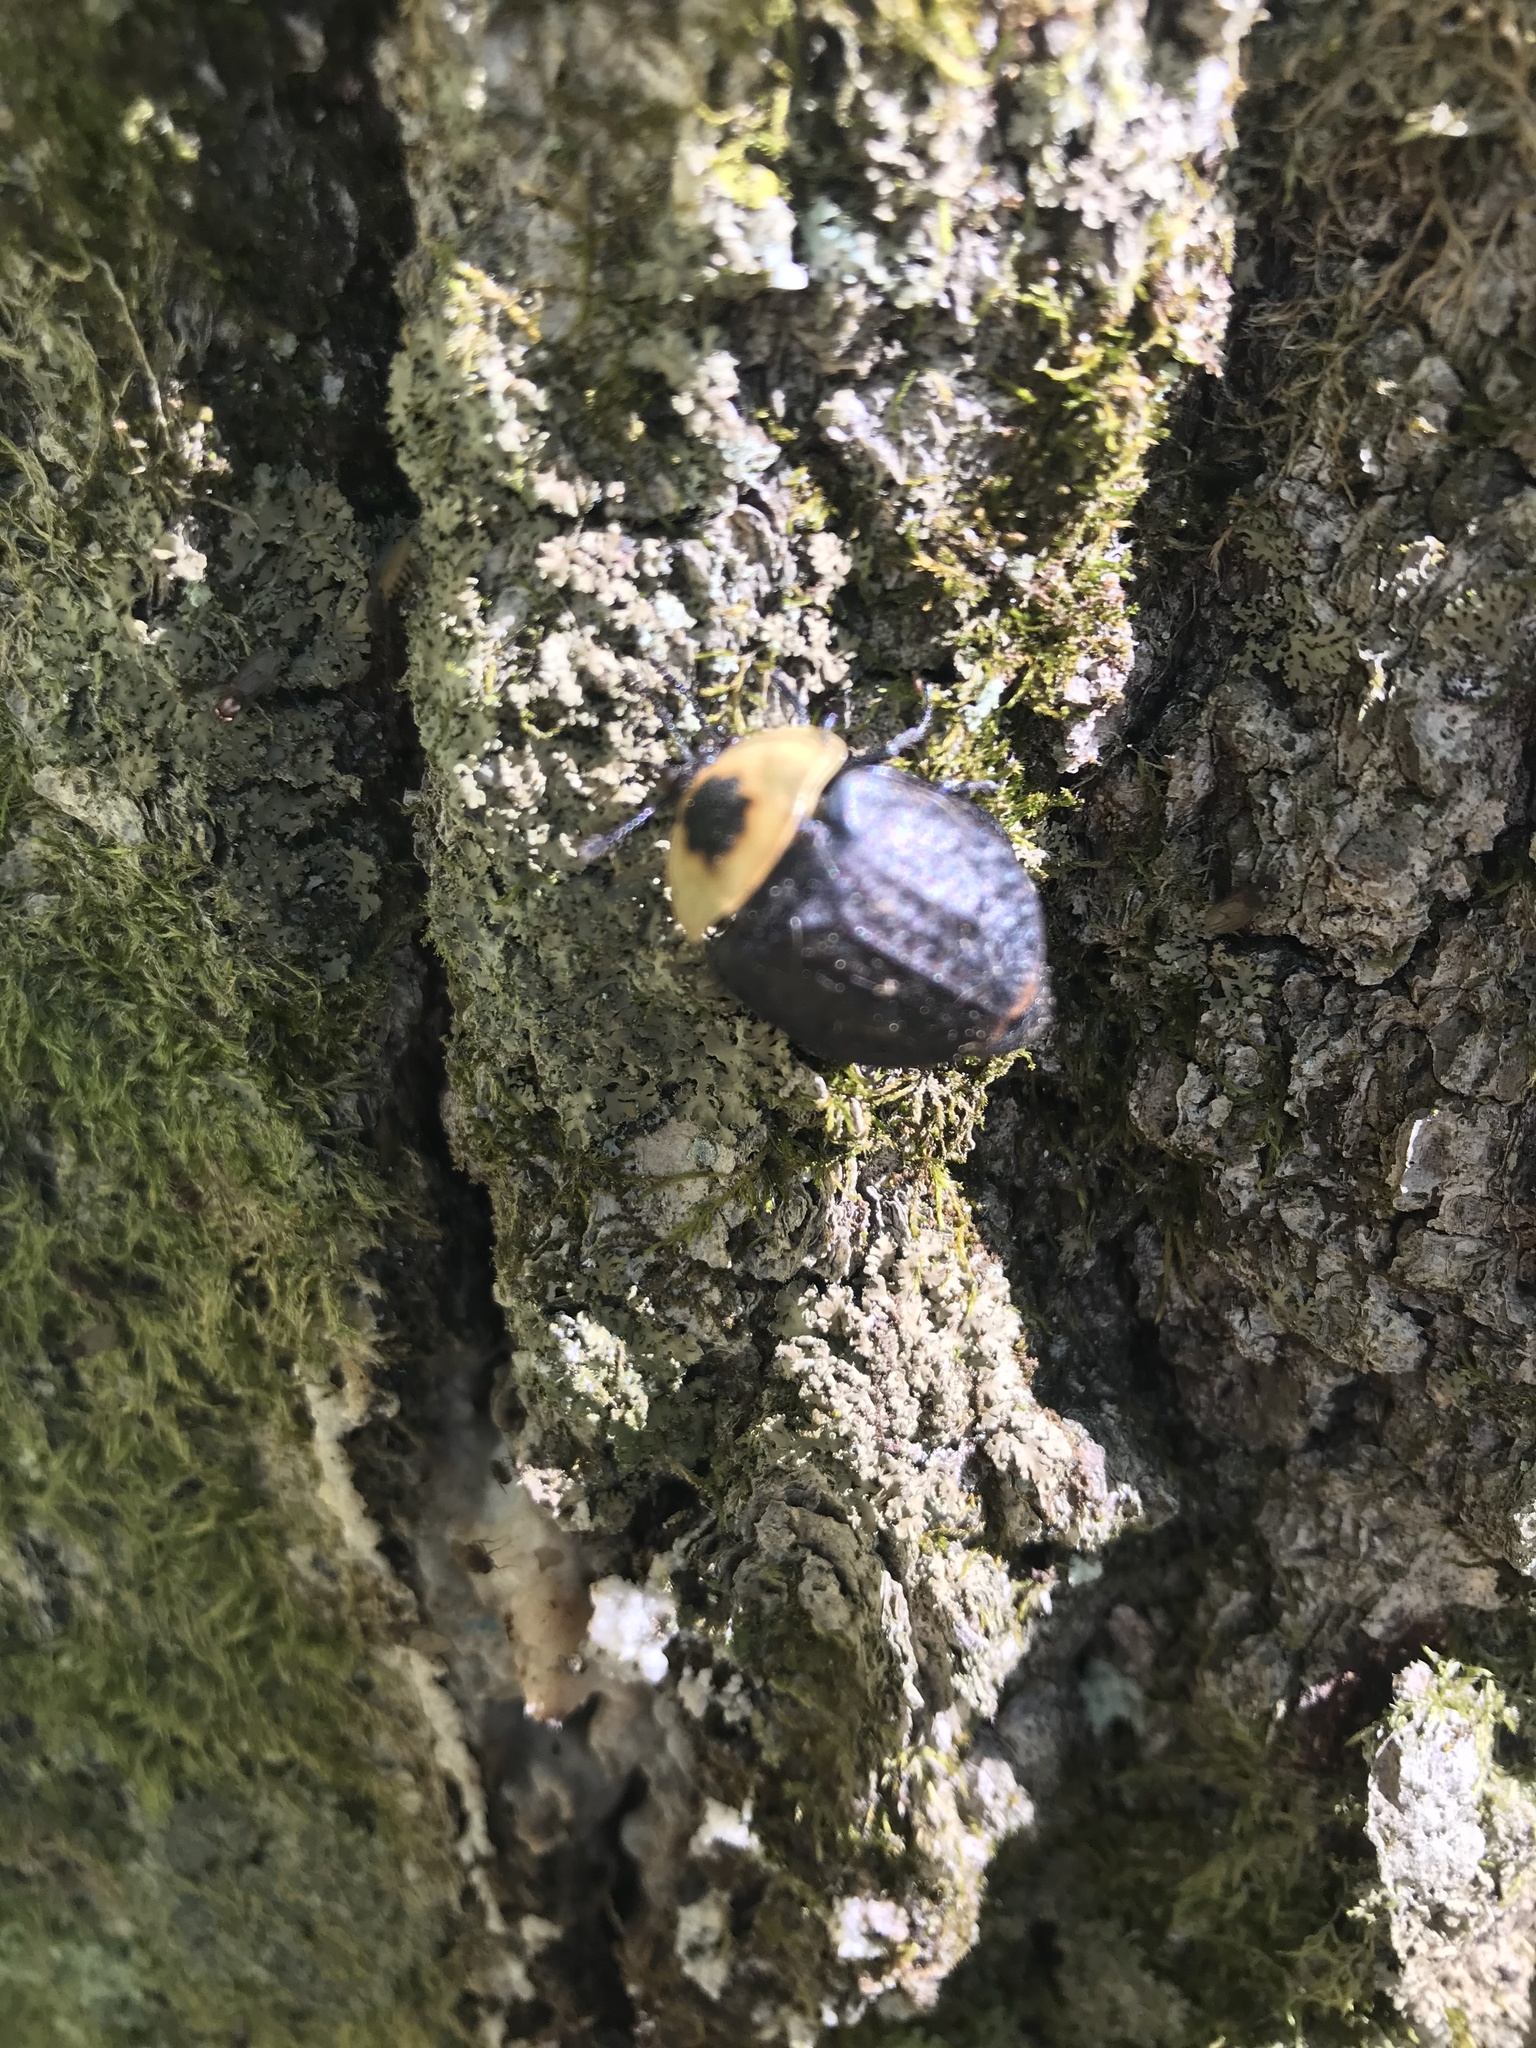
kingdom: Animalia
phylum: Arthropoda
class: Insecta
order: Coleoptera
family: Staphylinidae
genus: Necrophila
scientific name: Necrophila americana
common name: American carrion beetle
